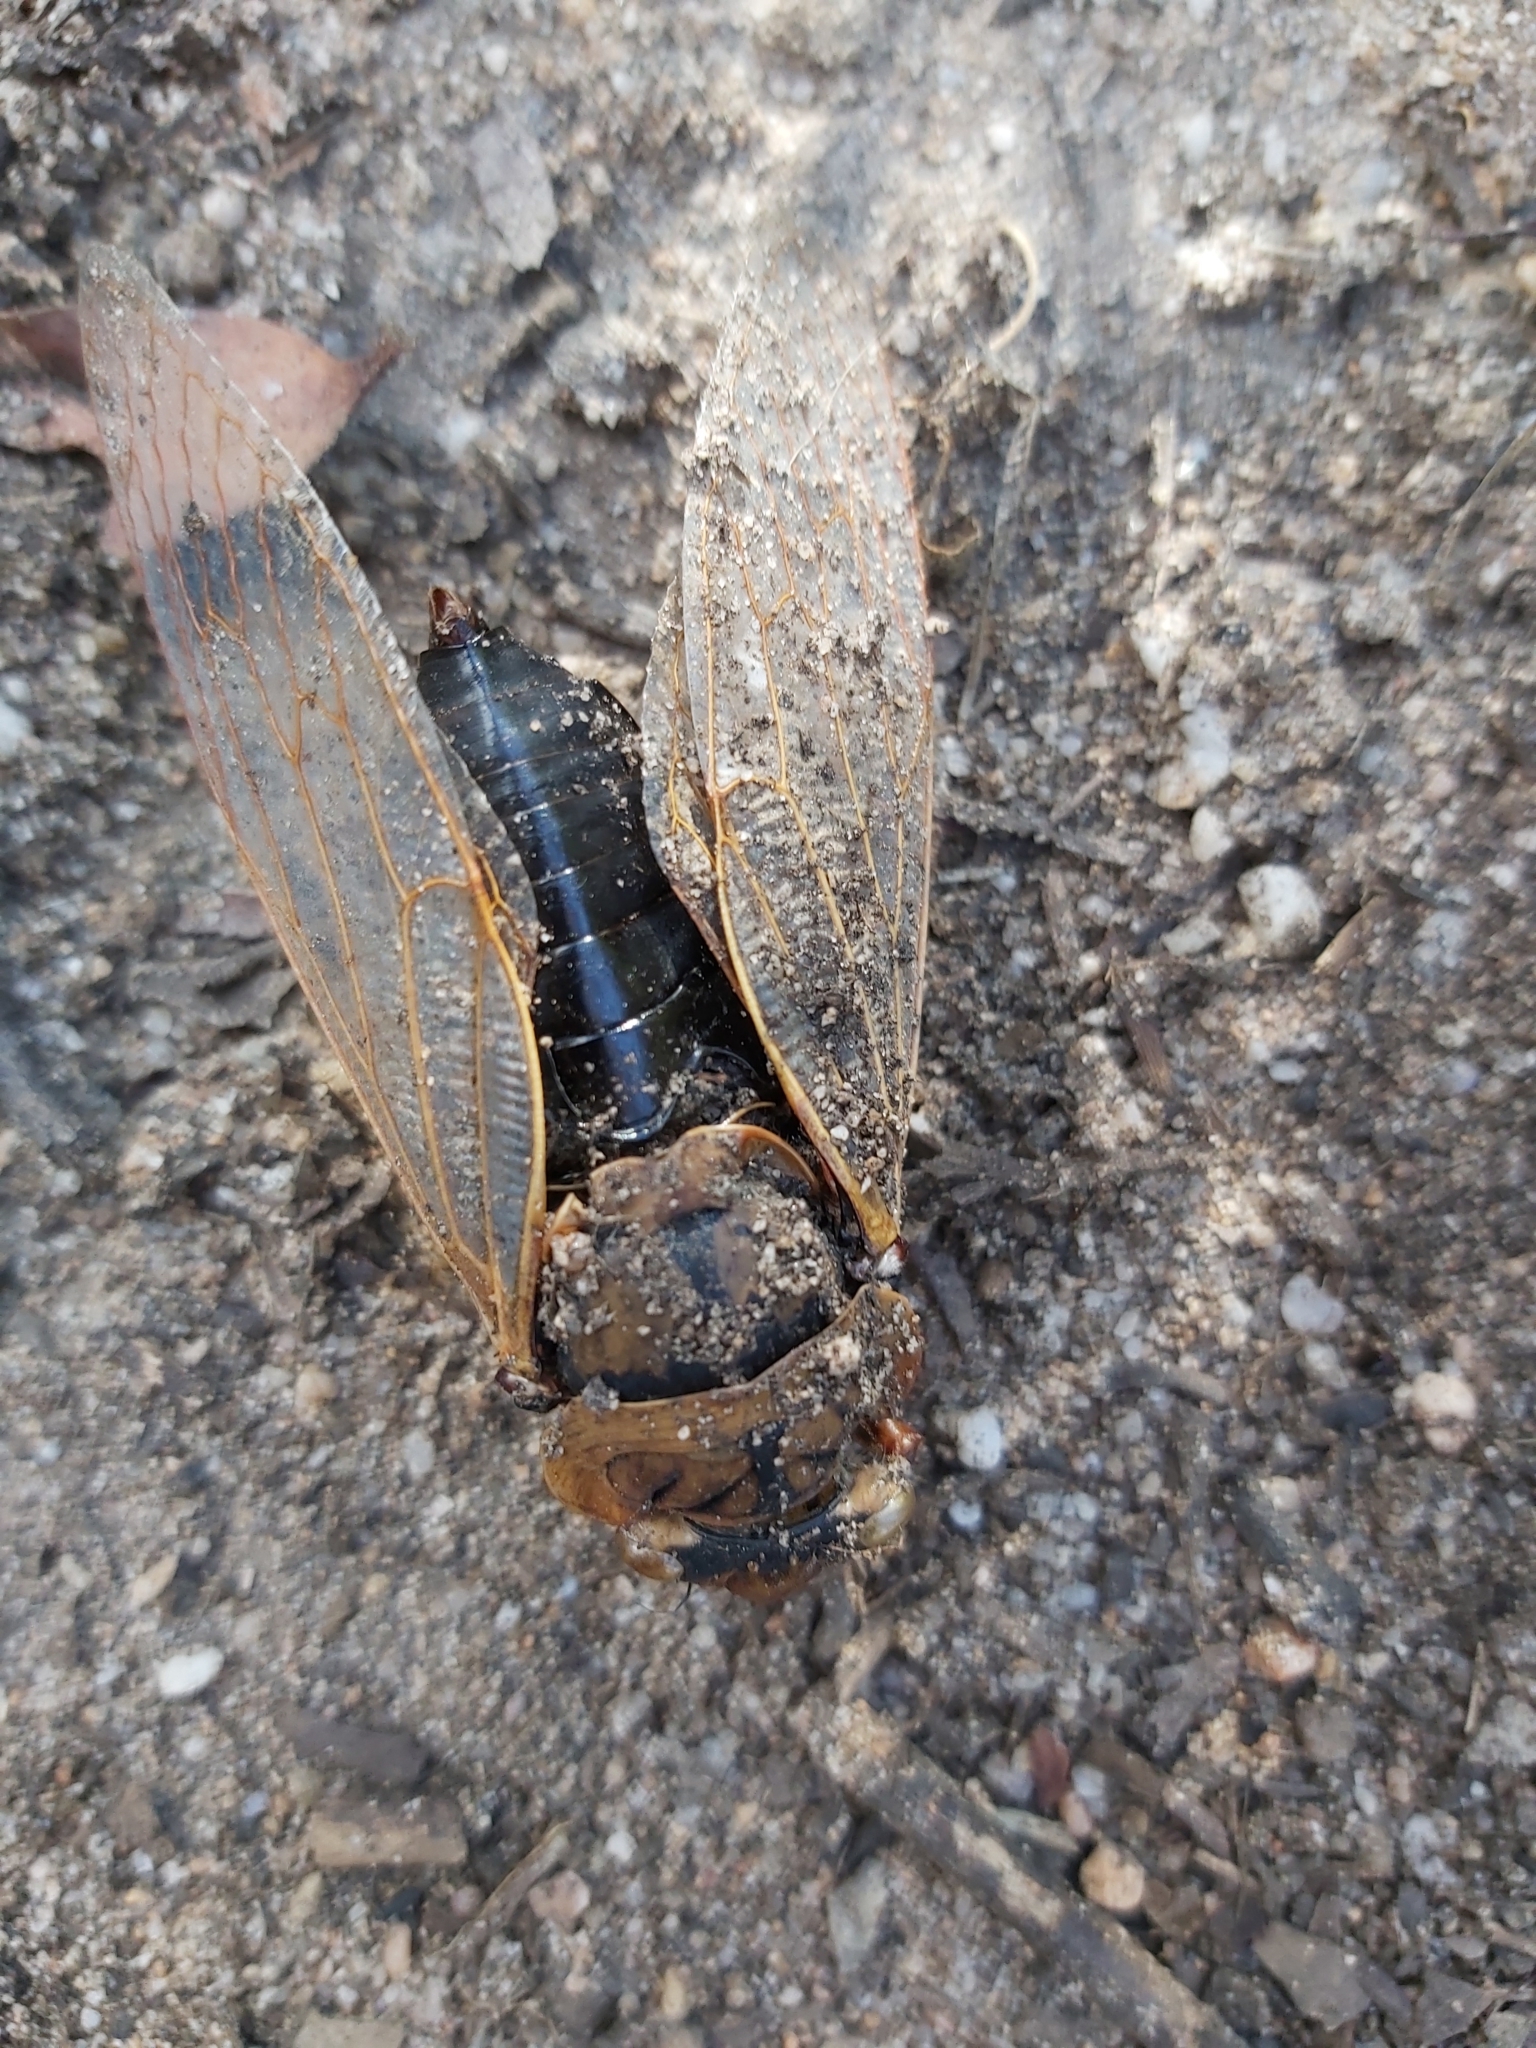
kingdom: Animalia
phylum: Arthropoda
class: Insecta
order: Hemiptera
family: Cicadidae
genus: Cyclochila
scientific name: Cyclochila australasiae
